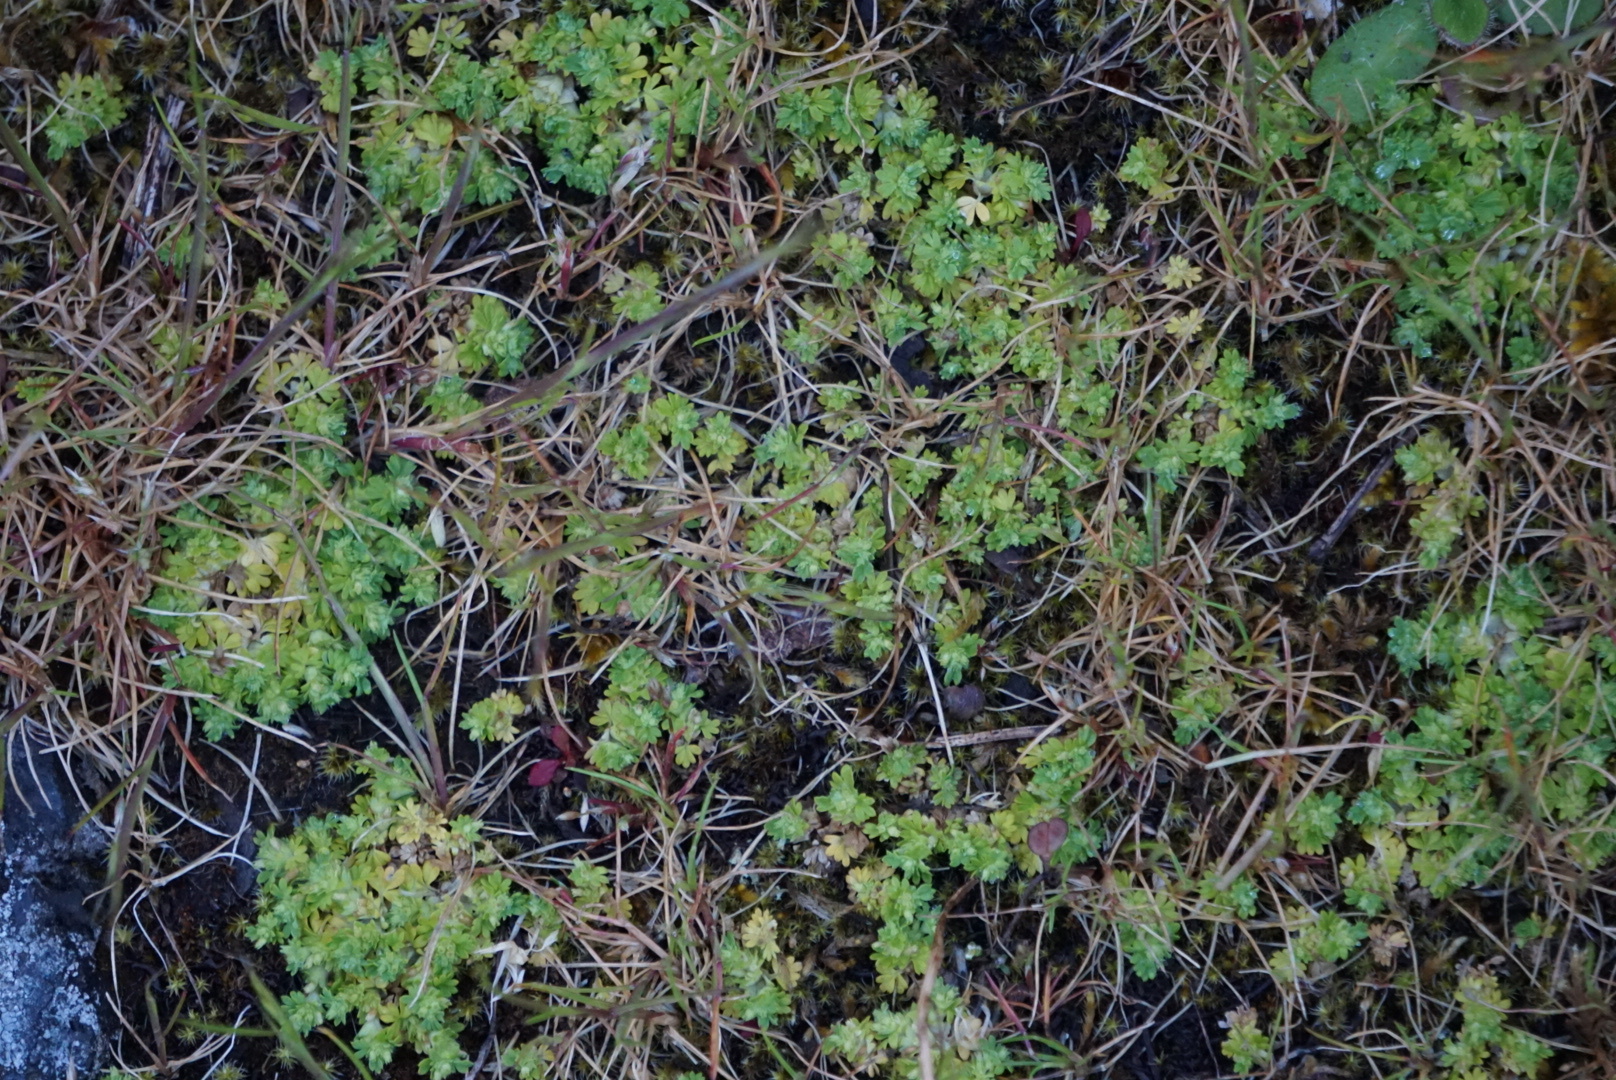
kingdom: Plantae
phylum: Tracheophyta
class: Magnoliopsida
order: Rosales
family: Rosaceae
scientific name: Rosaceae
